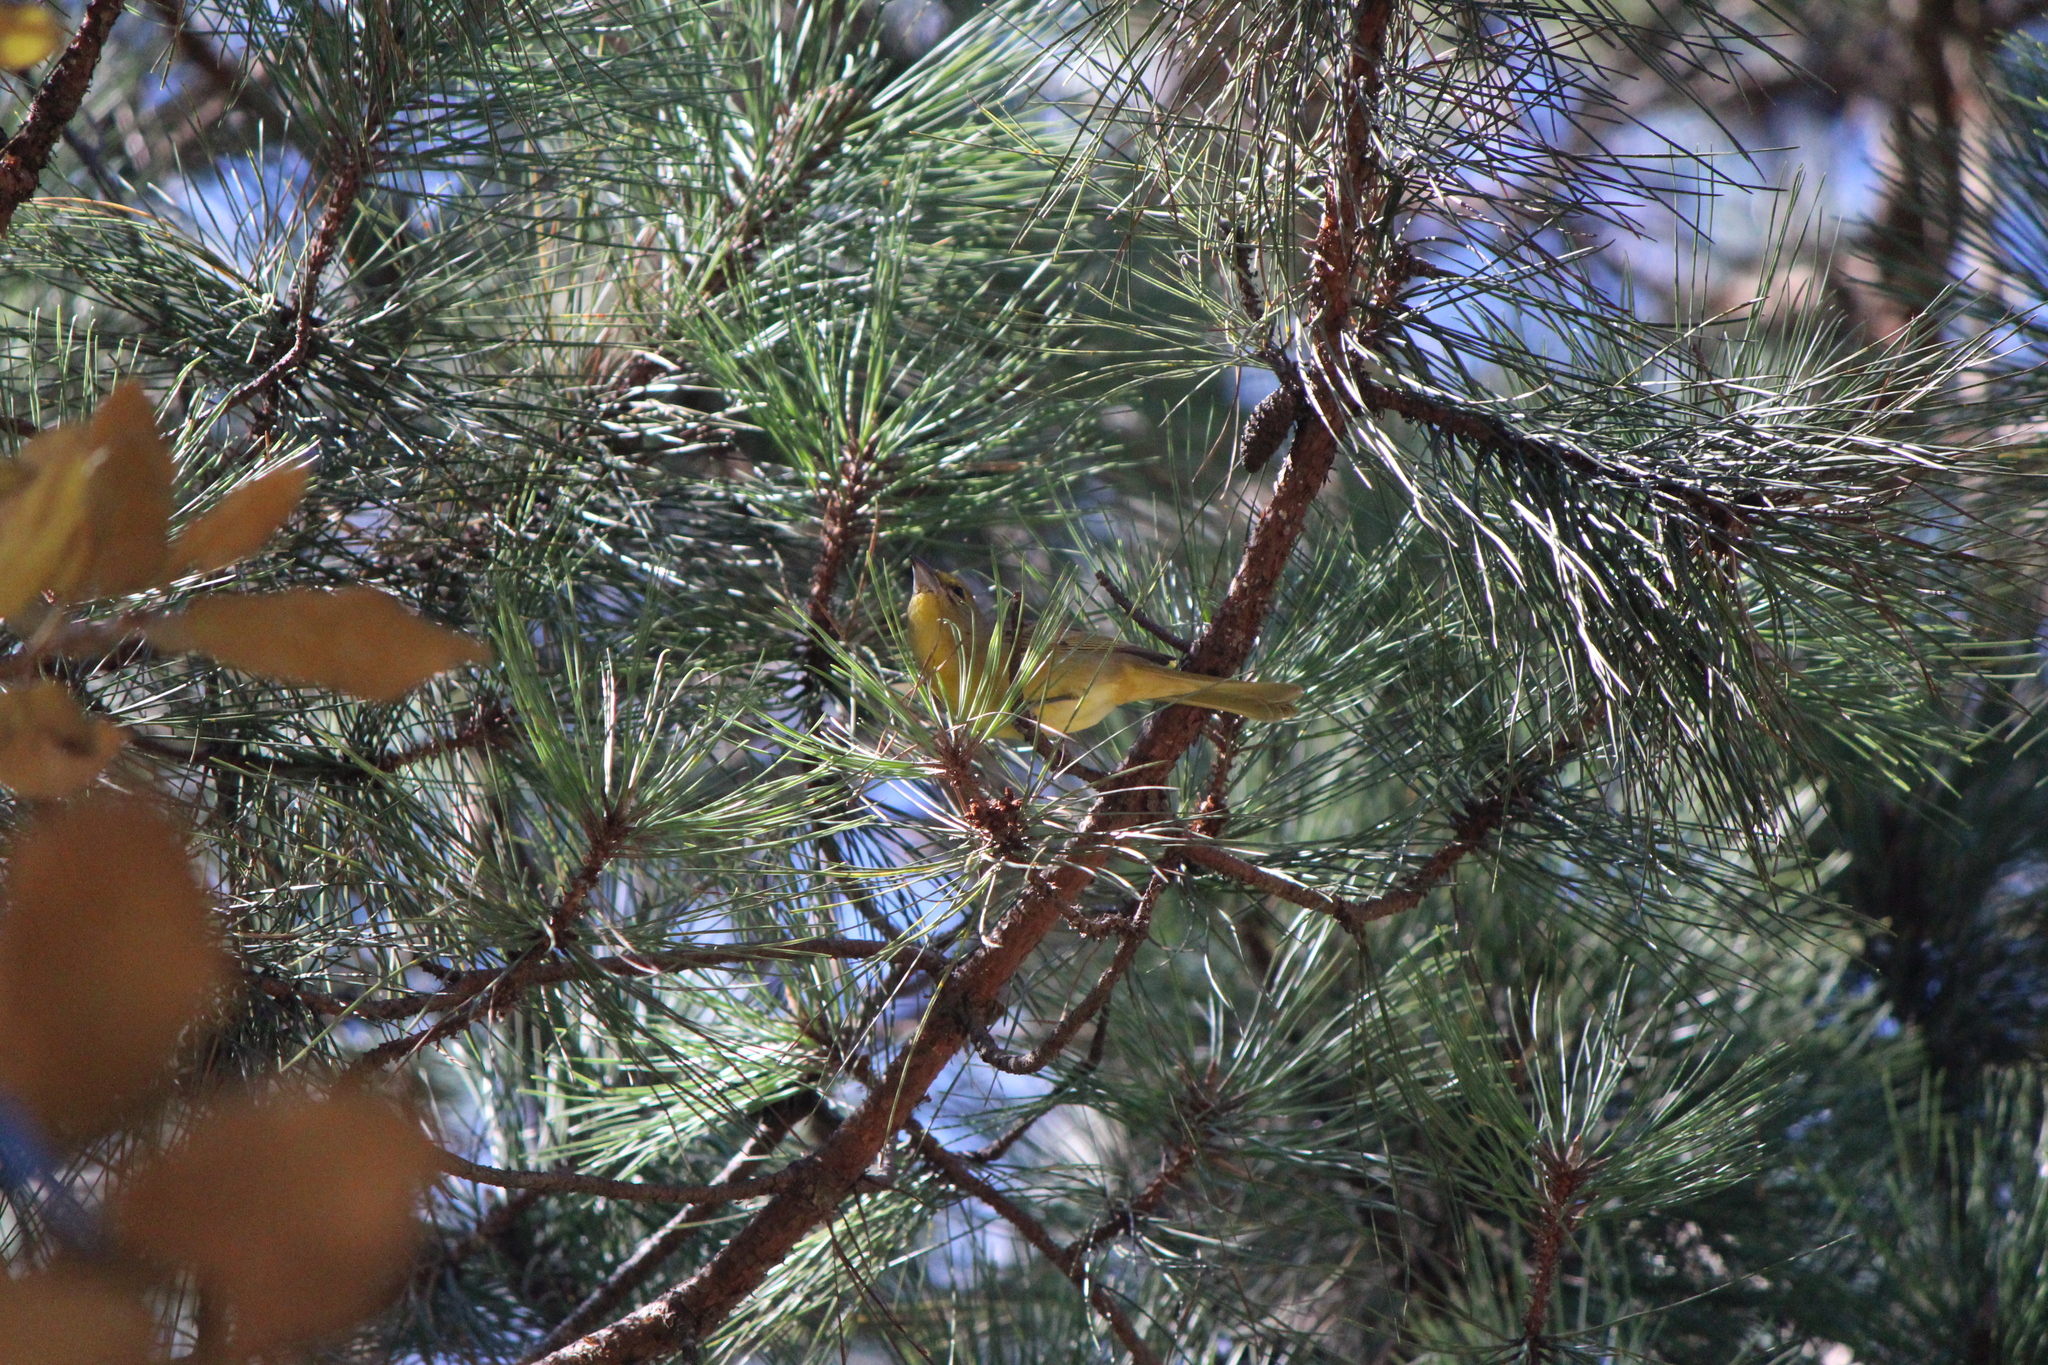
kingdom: Animalia
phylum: Chordata
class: Aves
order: Passeriformes
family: Cardinalidae
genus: Piranga
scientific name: Piranga flava
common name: Red tanager
